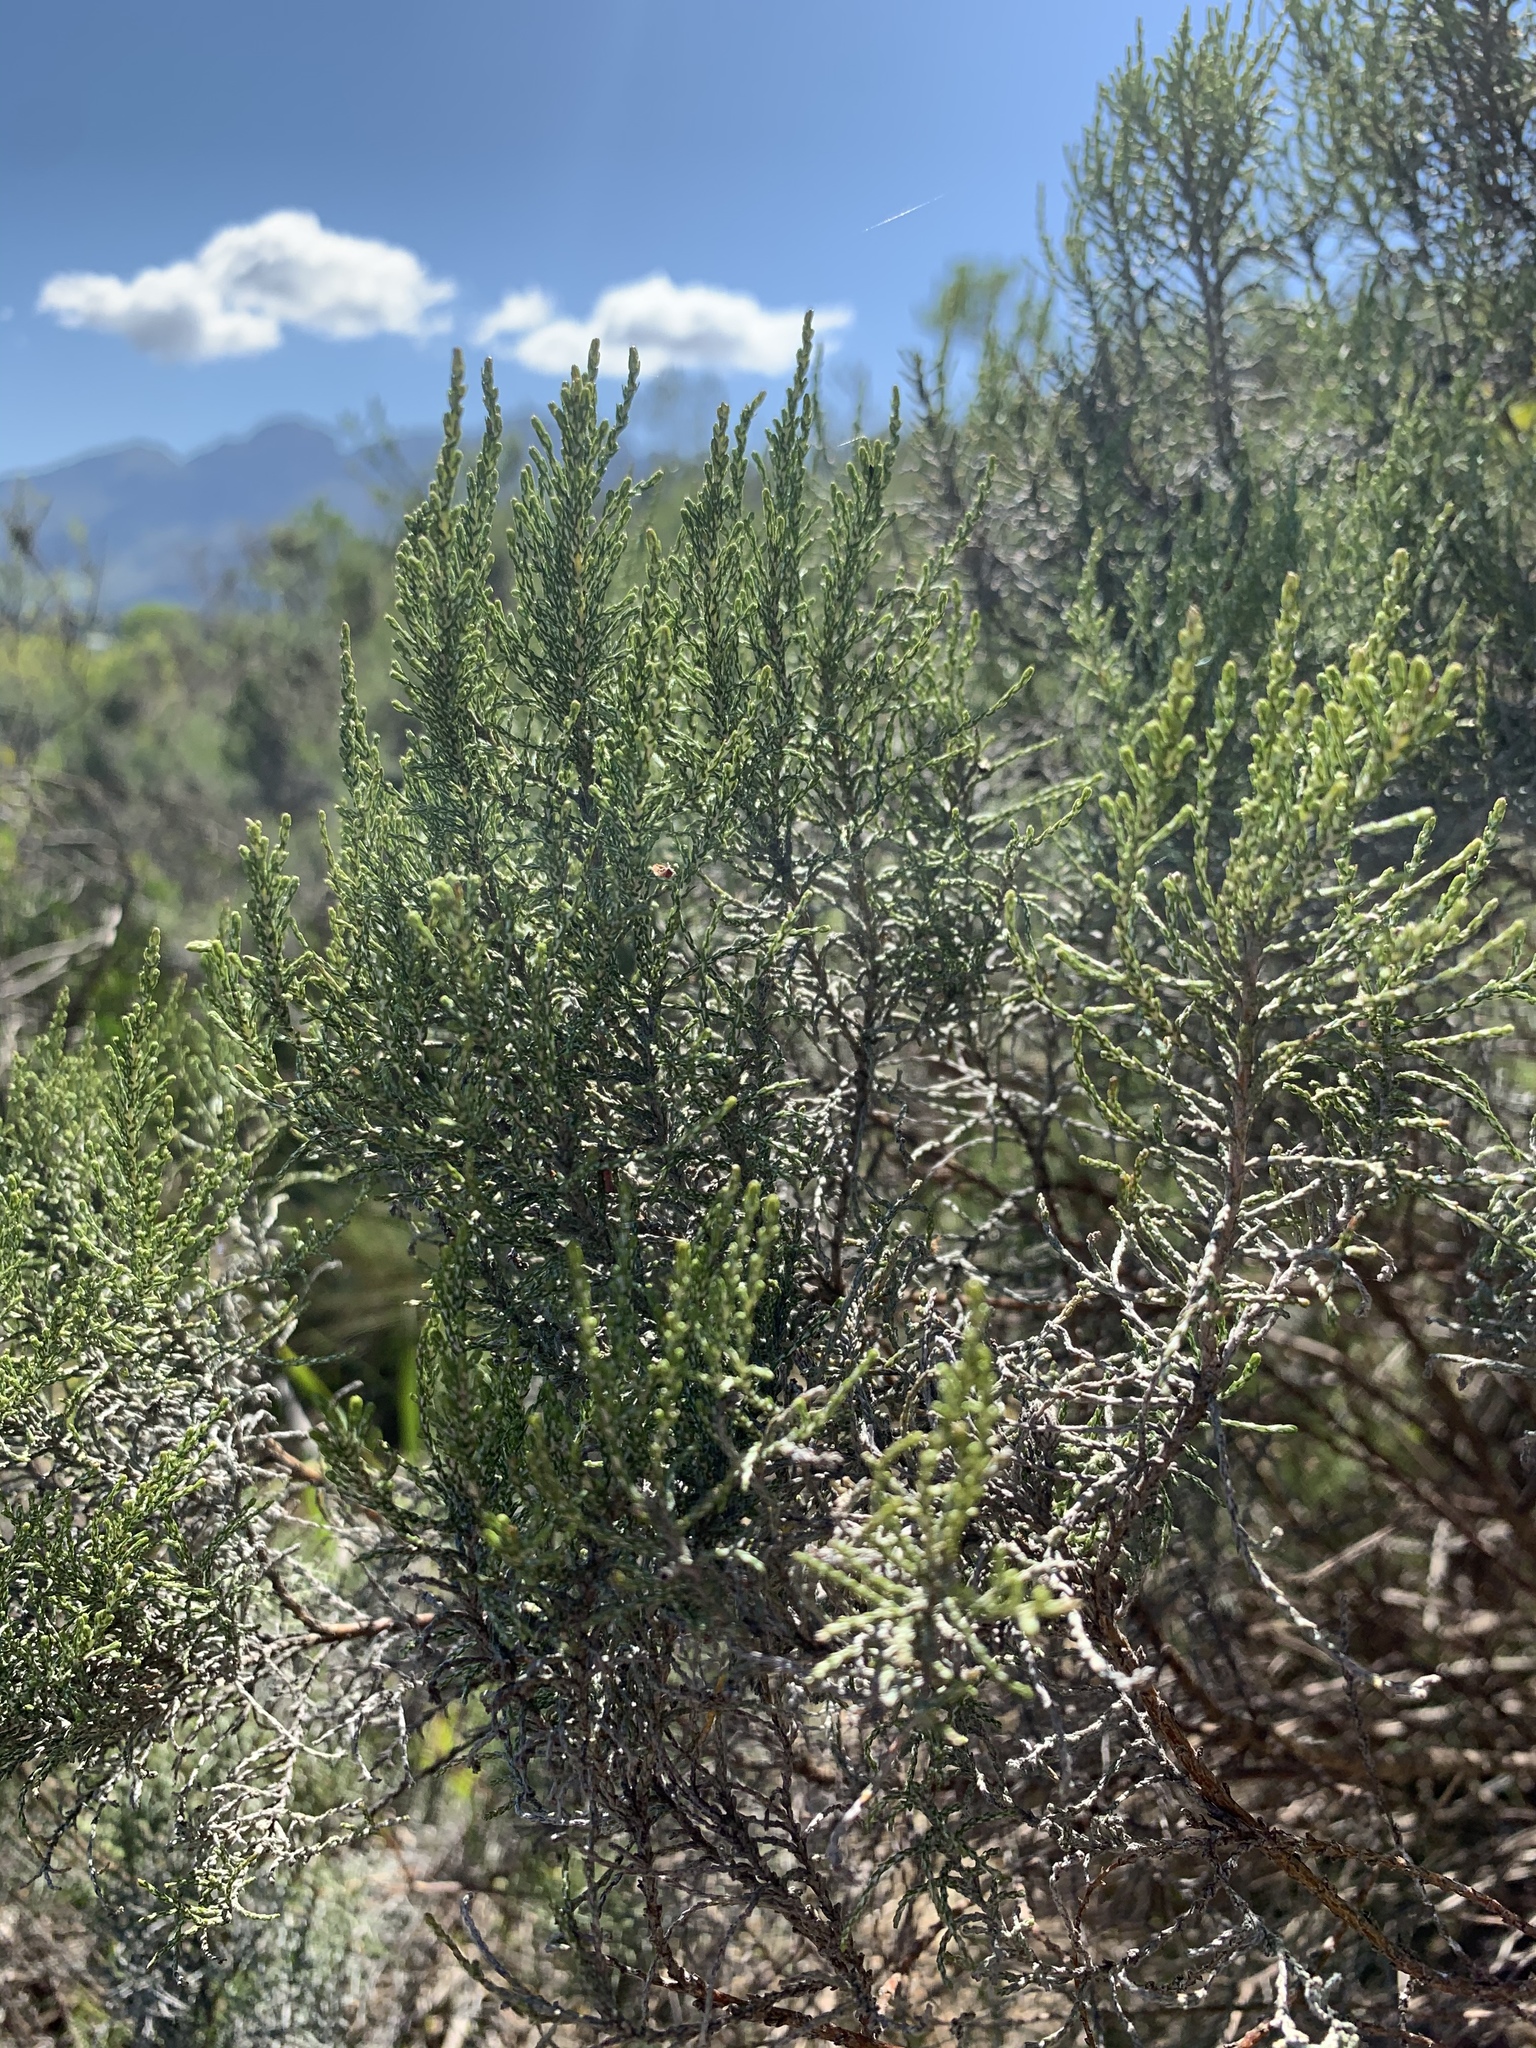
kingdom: Plantae
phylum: Tracheophyta
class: Magnoliopsida
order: Asterales
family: Asteraceae
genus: Dicerothamnus
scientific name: Dicerothamnus rhinocerotis
